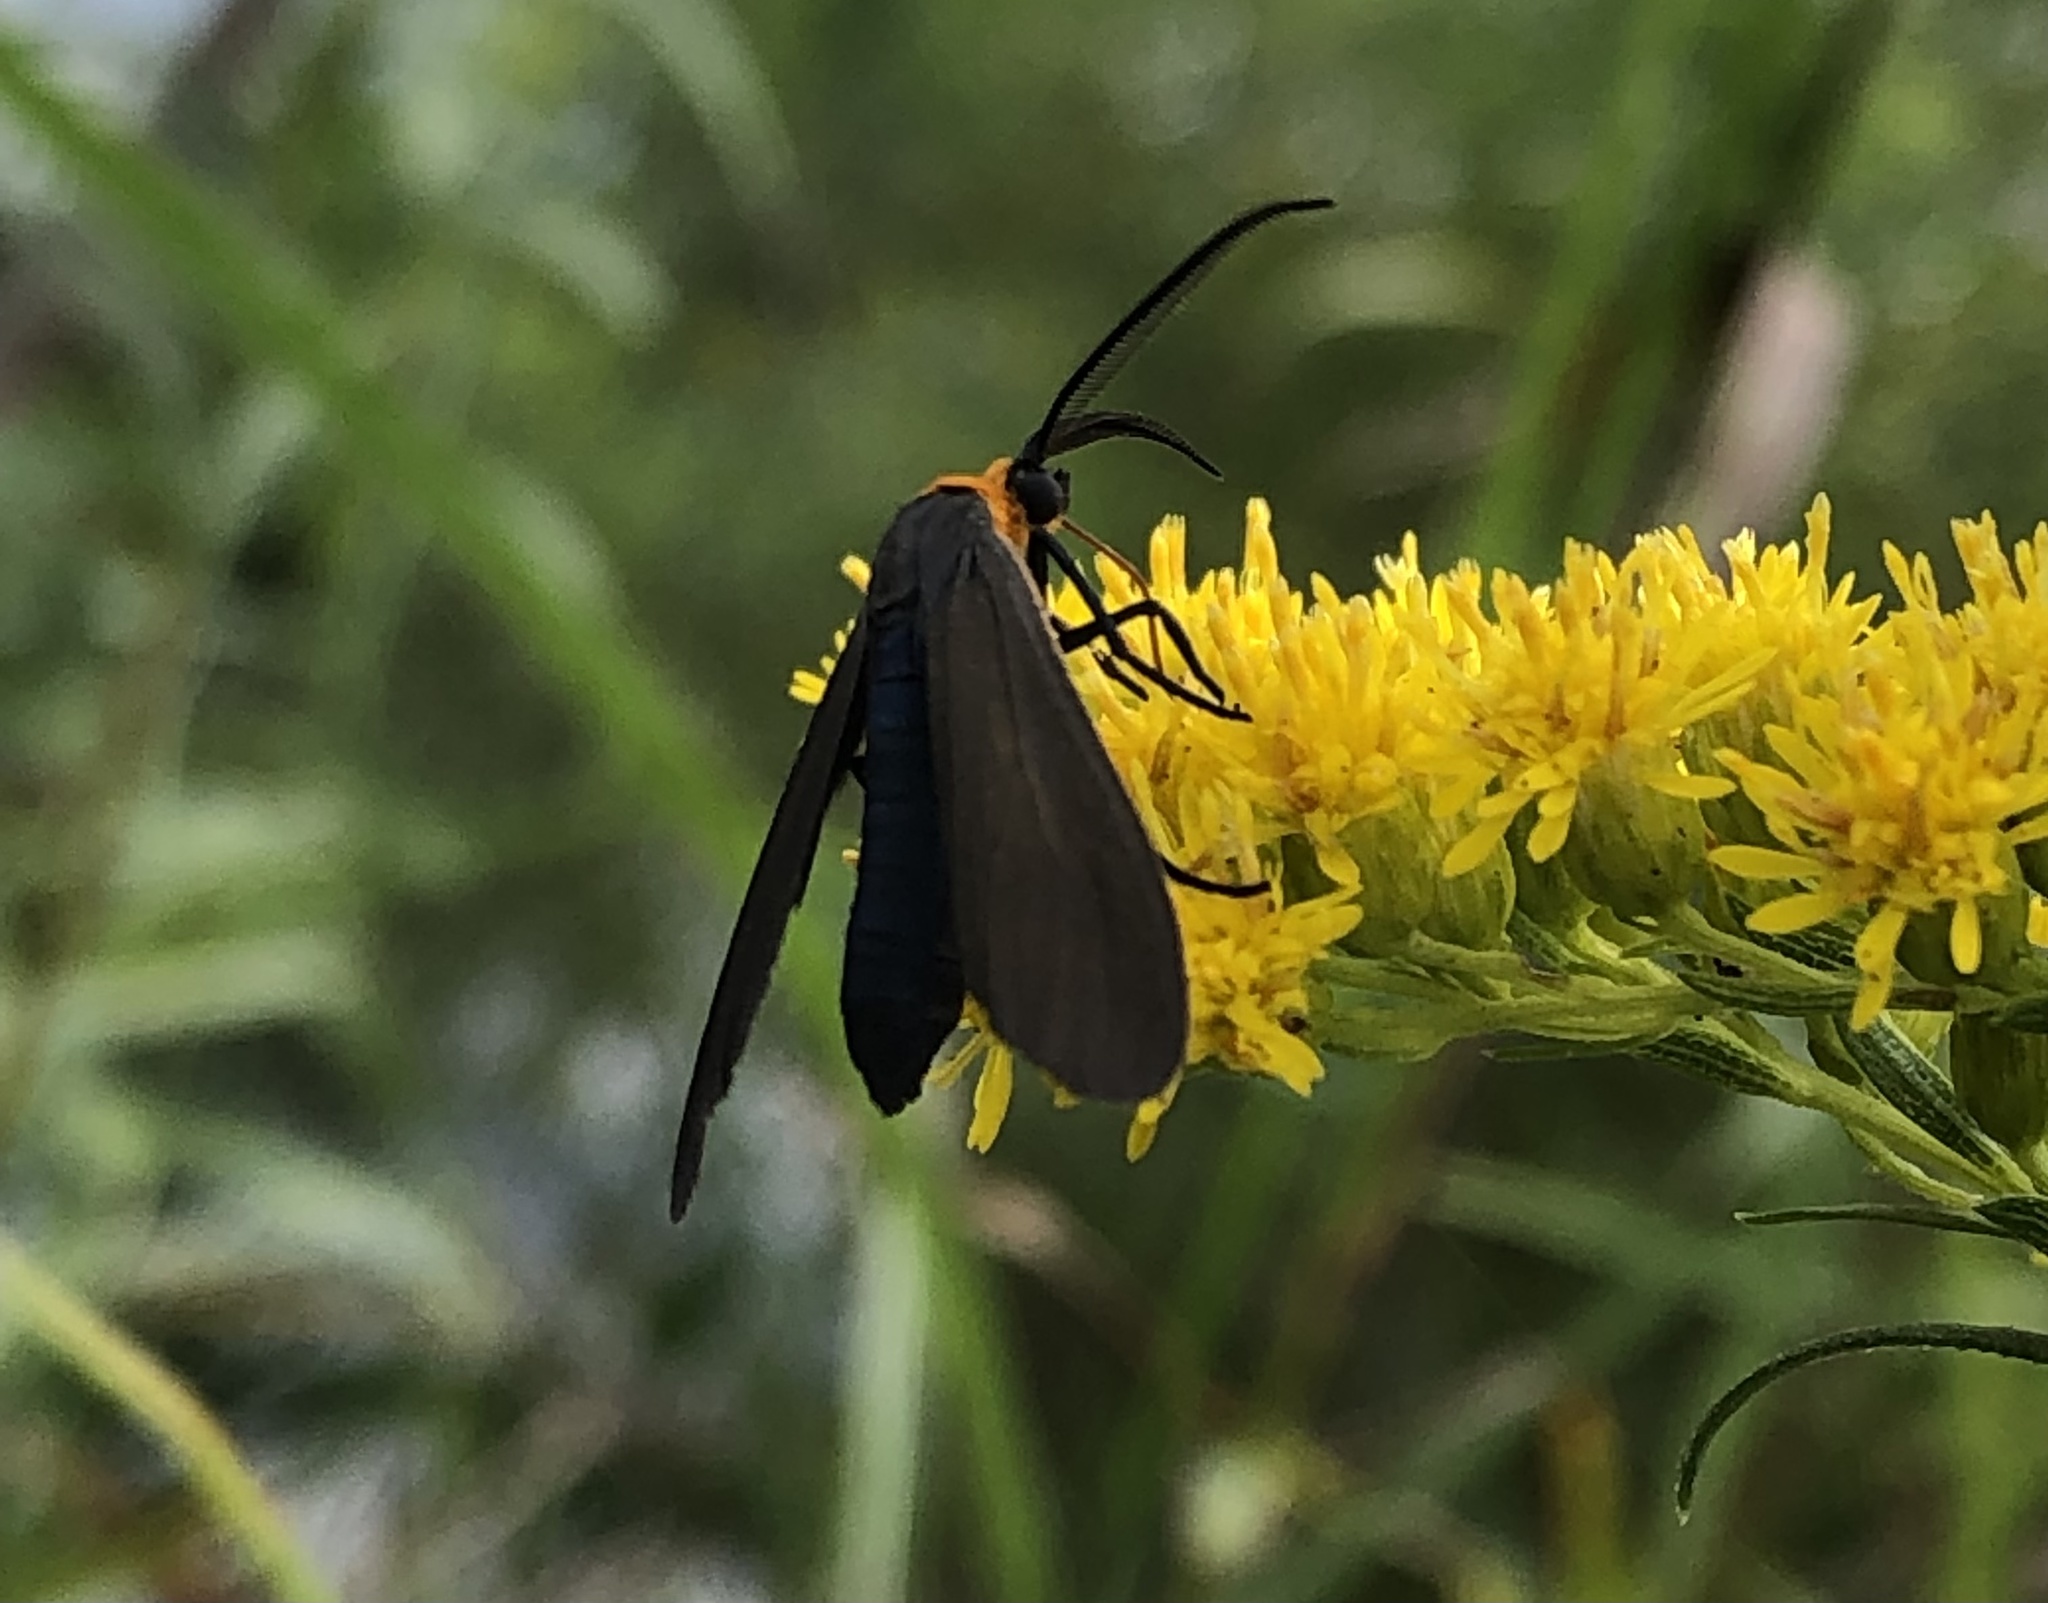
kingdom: Animalia
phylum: Arthropoda
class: Insecta
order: Lepidoptera
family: Erebidae
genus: Cisseps
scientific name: Cisseps fulvicollis
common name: Yellow-collared scape moth
